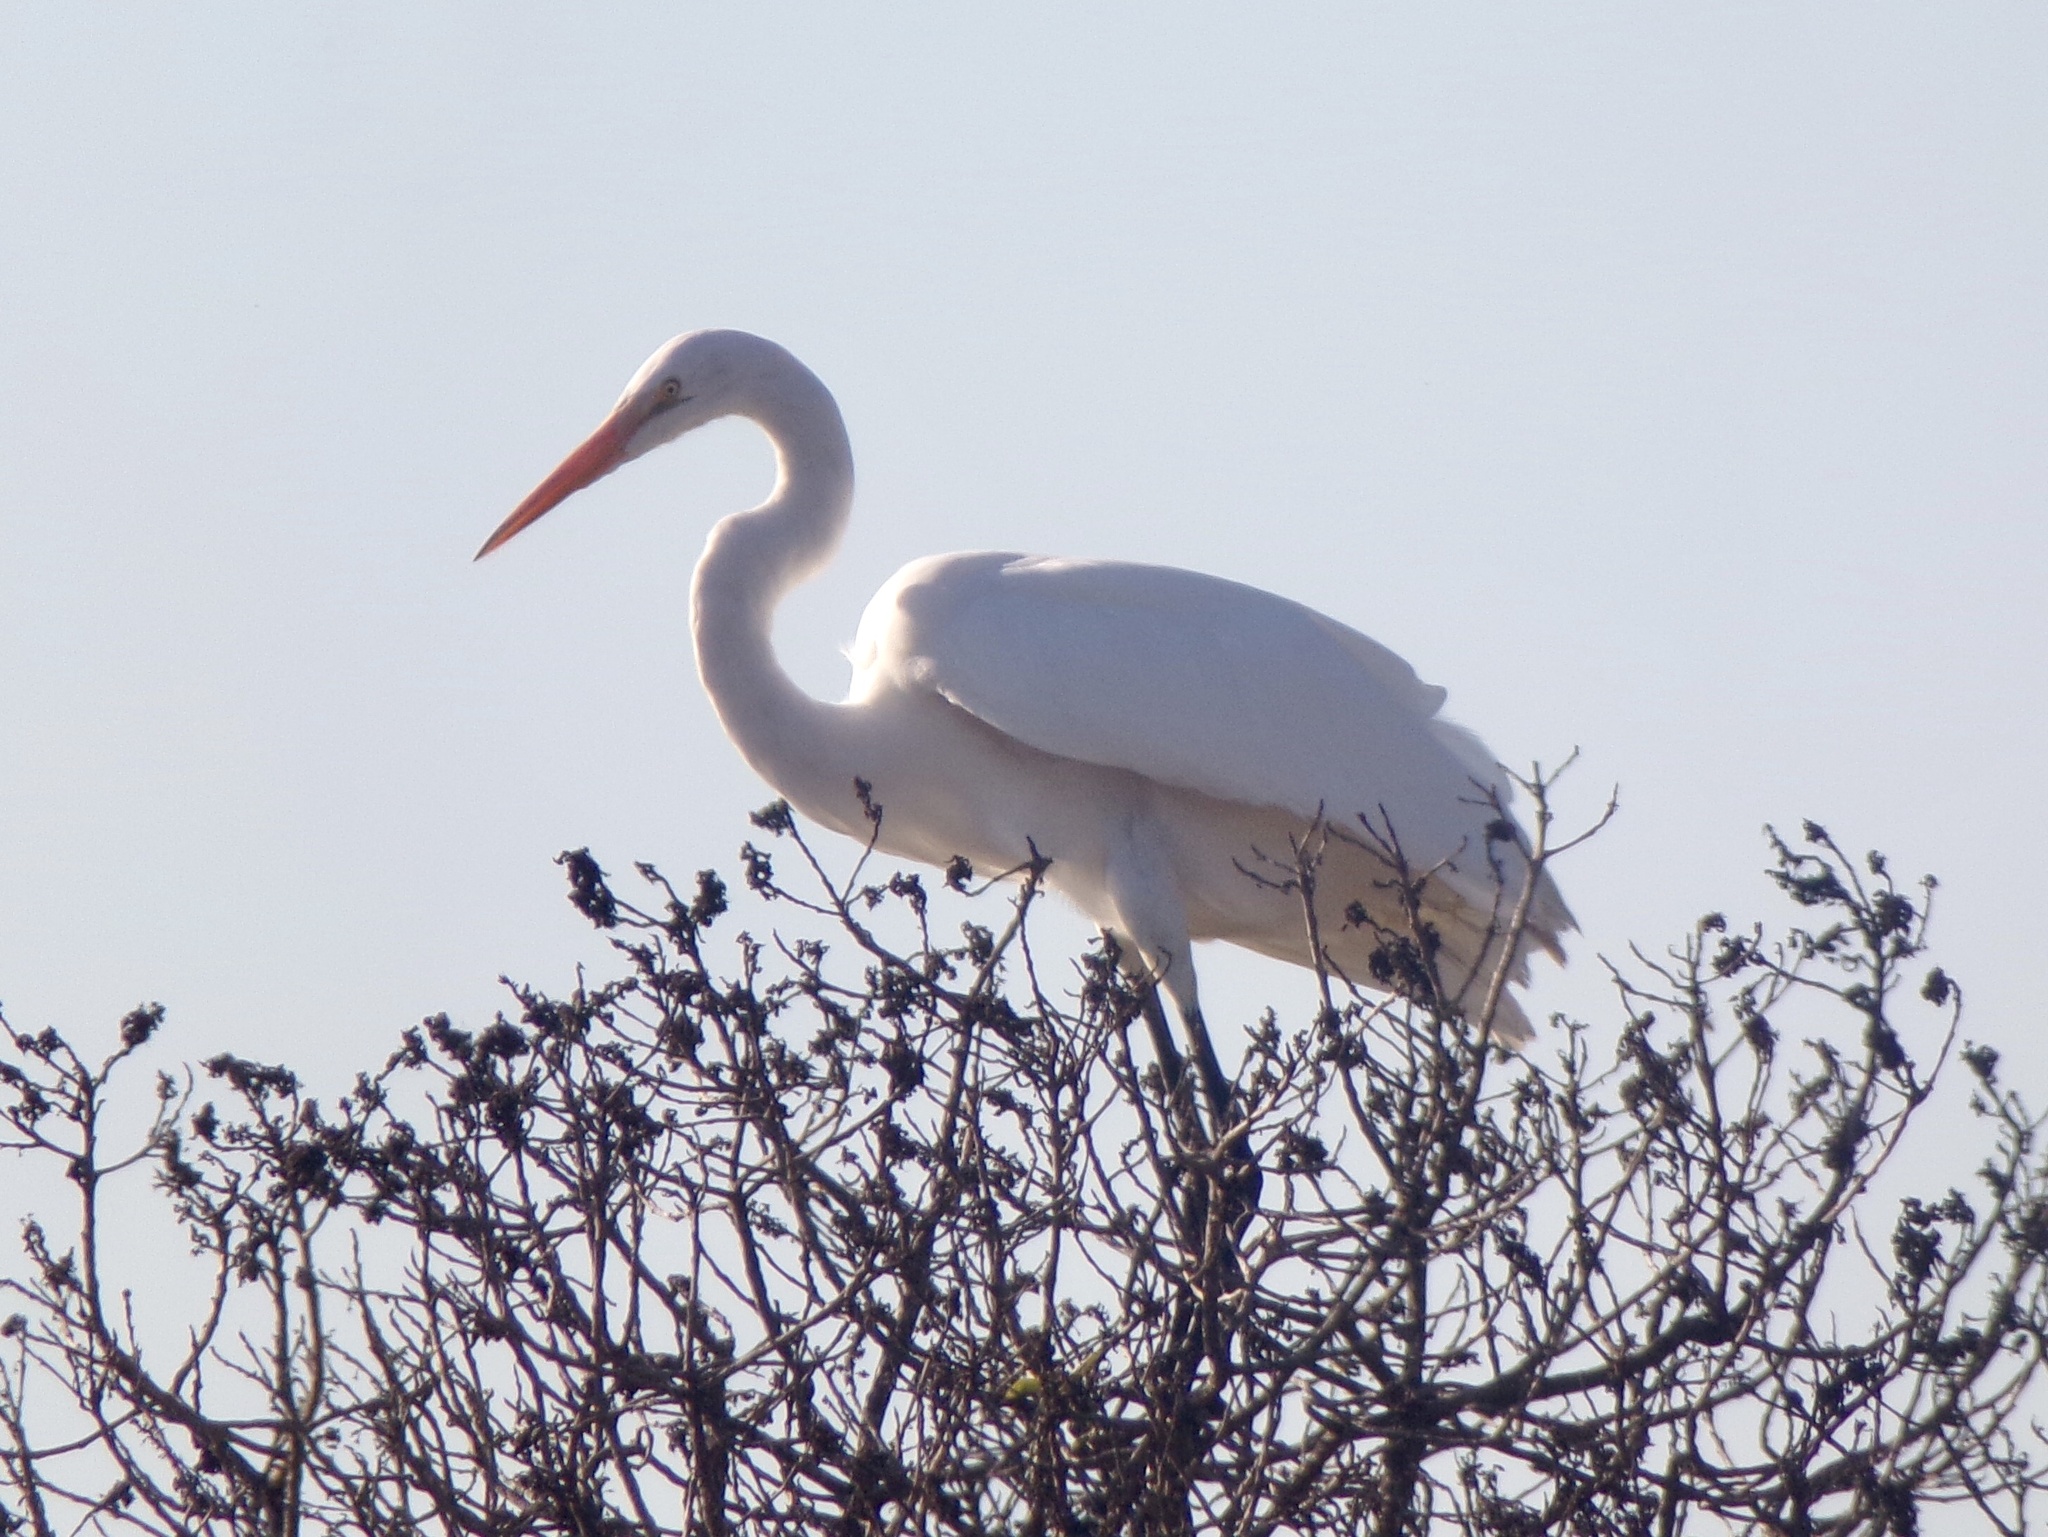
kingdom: Animalia
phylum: Chordata
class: Aves
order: Pelecaniformes
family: Ardeidae
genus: Ardea
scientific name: Ardea alba
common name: Great egret
